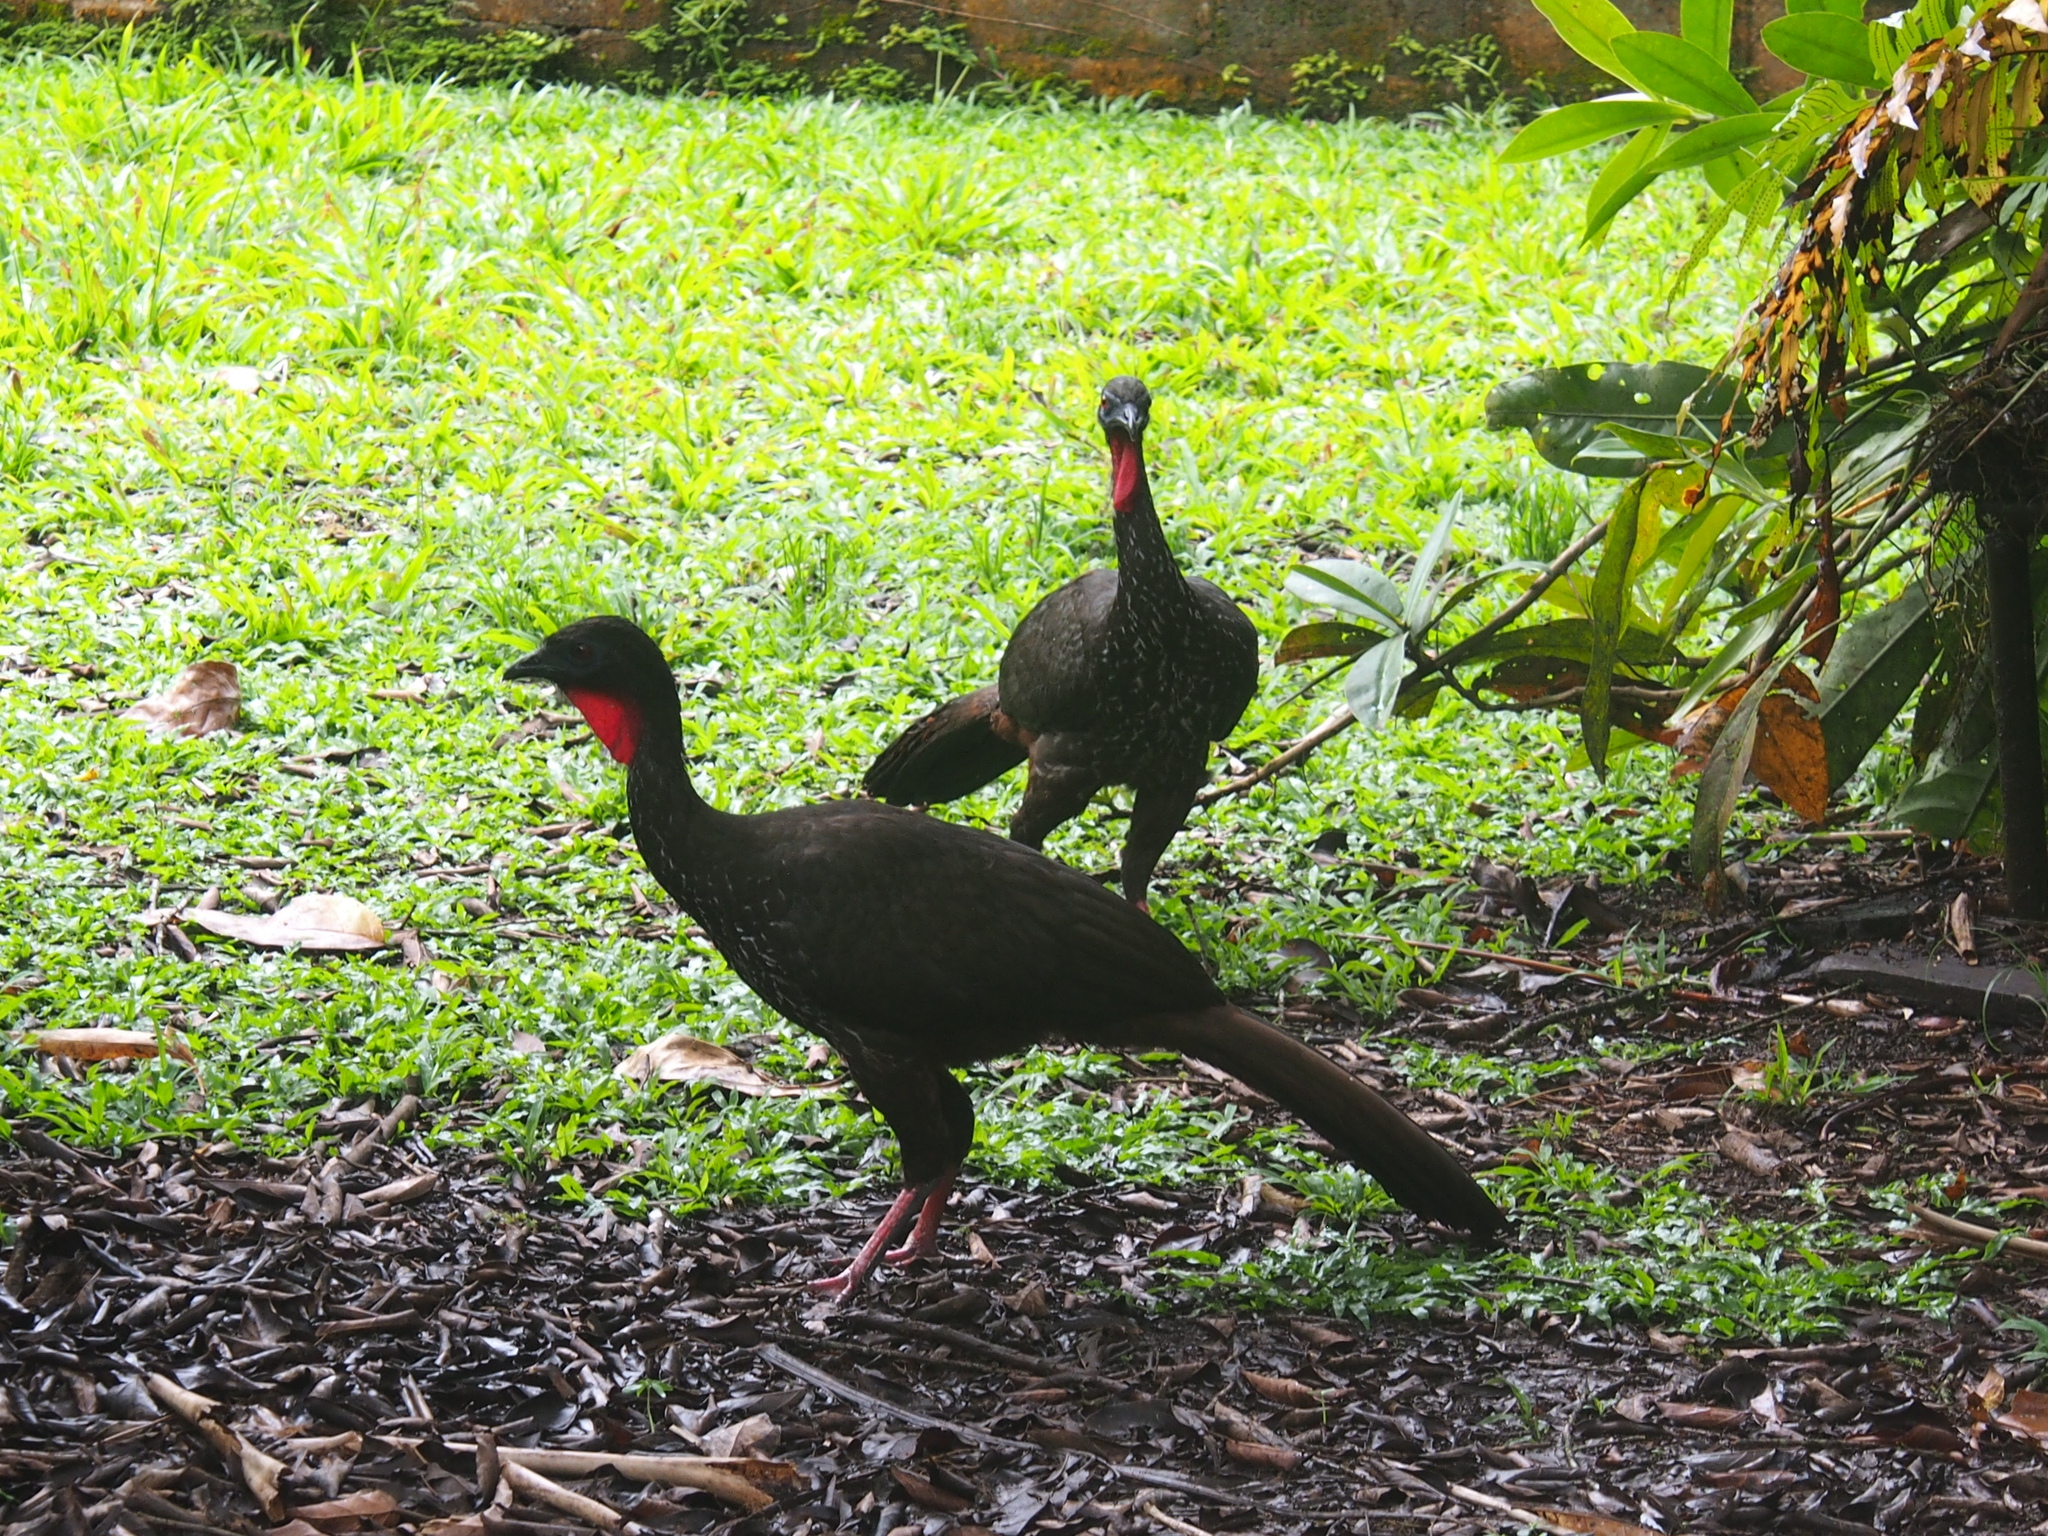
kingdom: Animalia
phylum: Chordata
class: Aves
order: Galliformes
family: Cracidae
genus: Penelope
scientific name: Penelope purpurascens
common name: Crested guan
